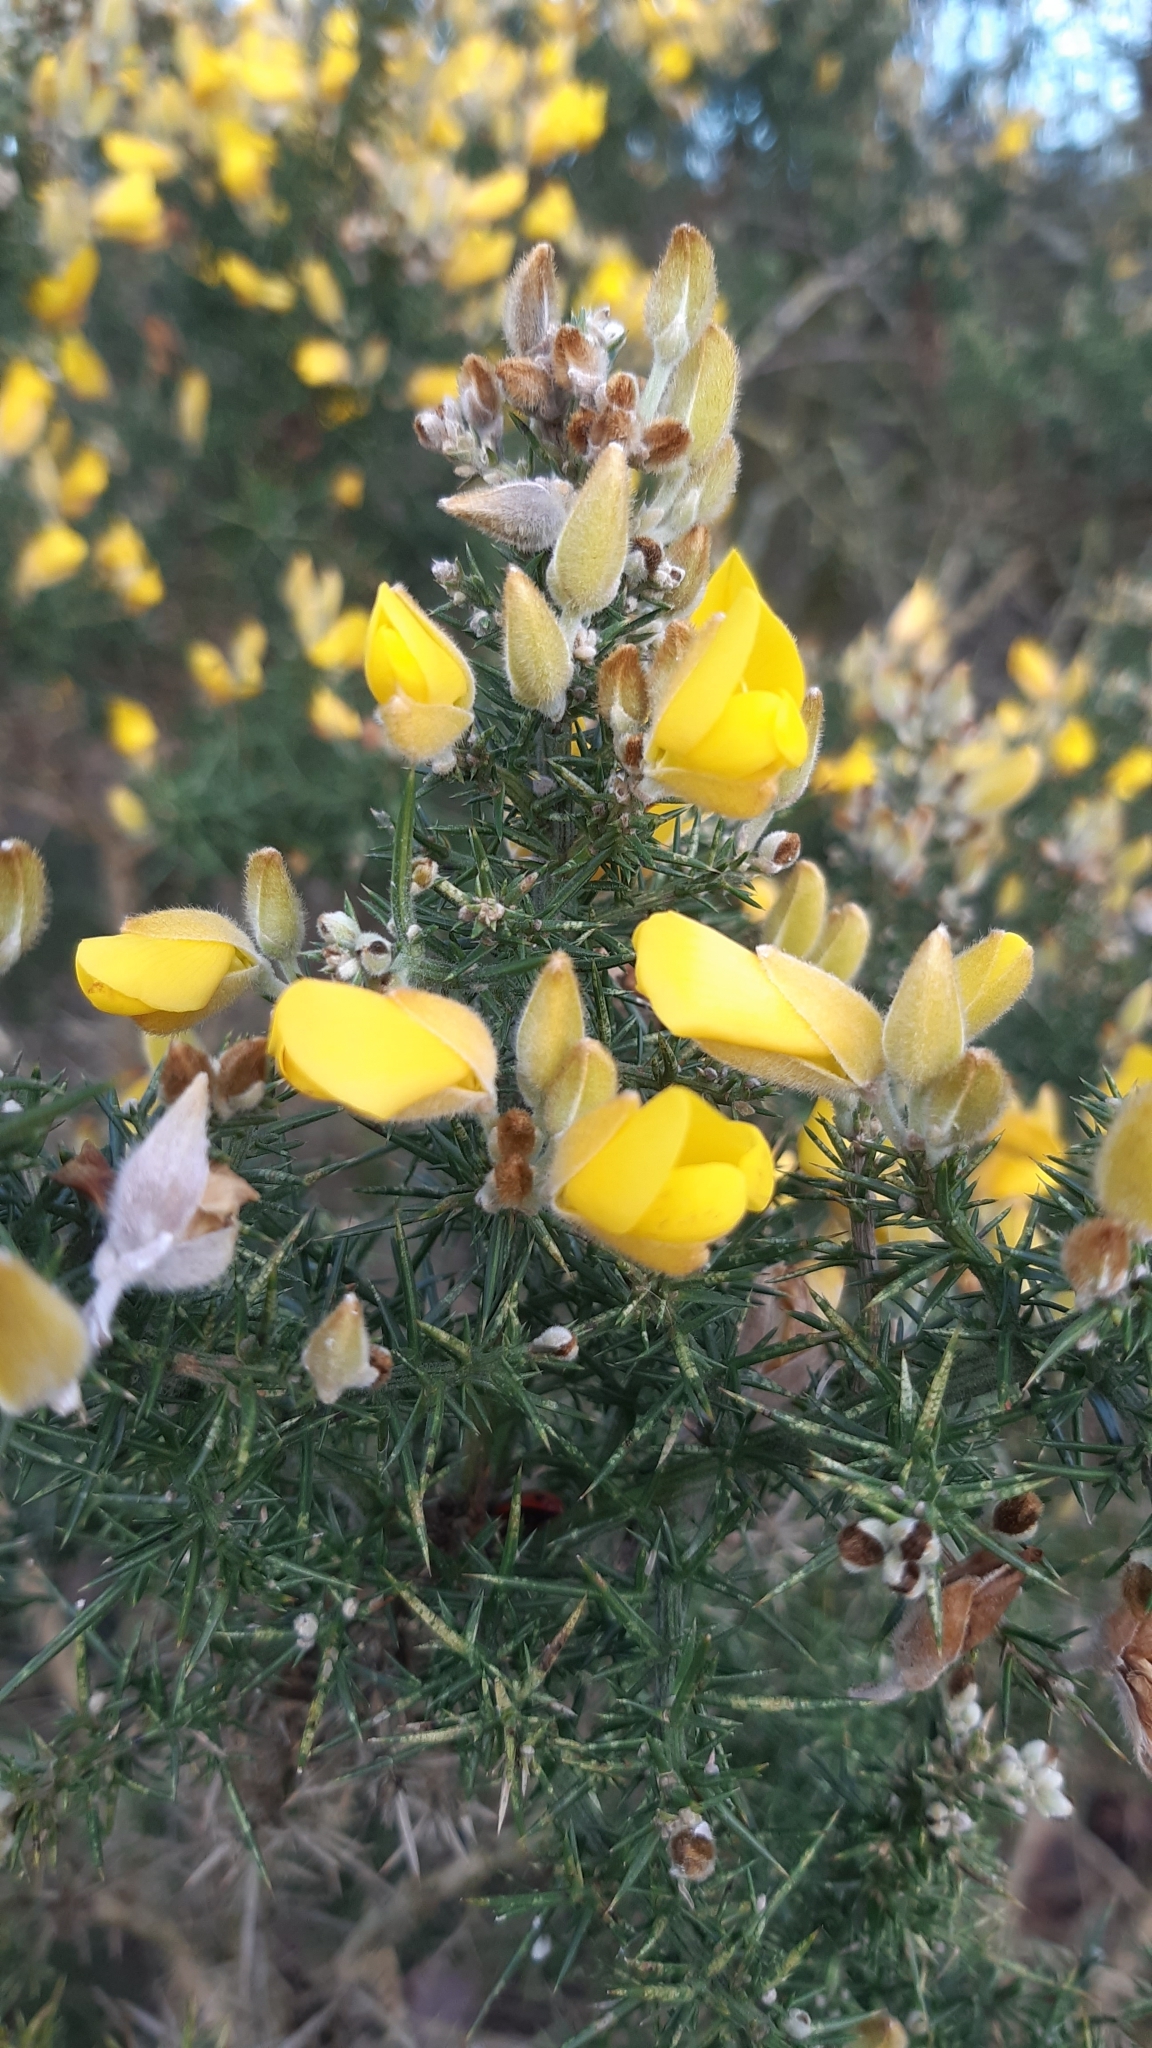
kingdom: Plantae
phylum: Tracheophyta
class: Magnoliopsida
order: Fabales
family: Fabaceae
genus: Ulex
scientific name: Ulex europaeus
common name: Common gorse
